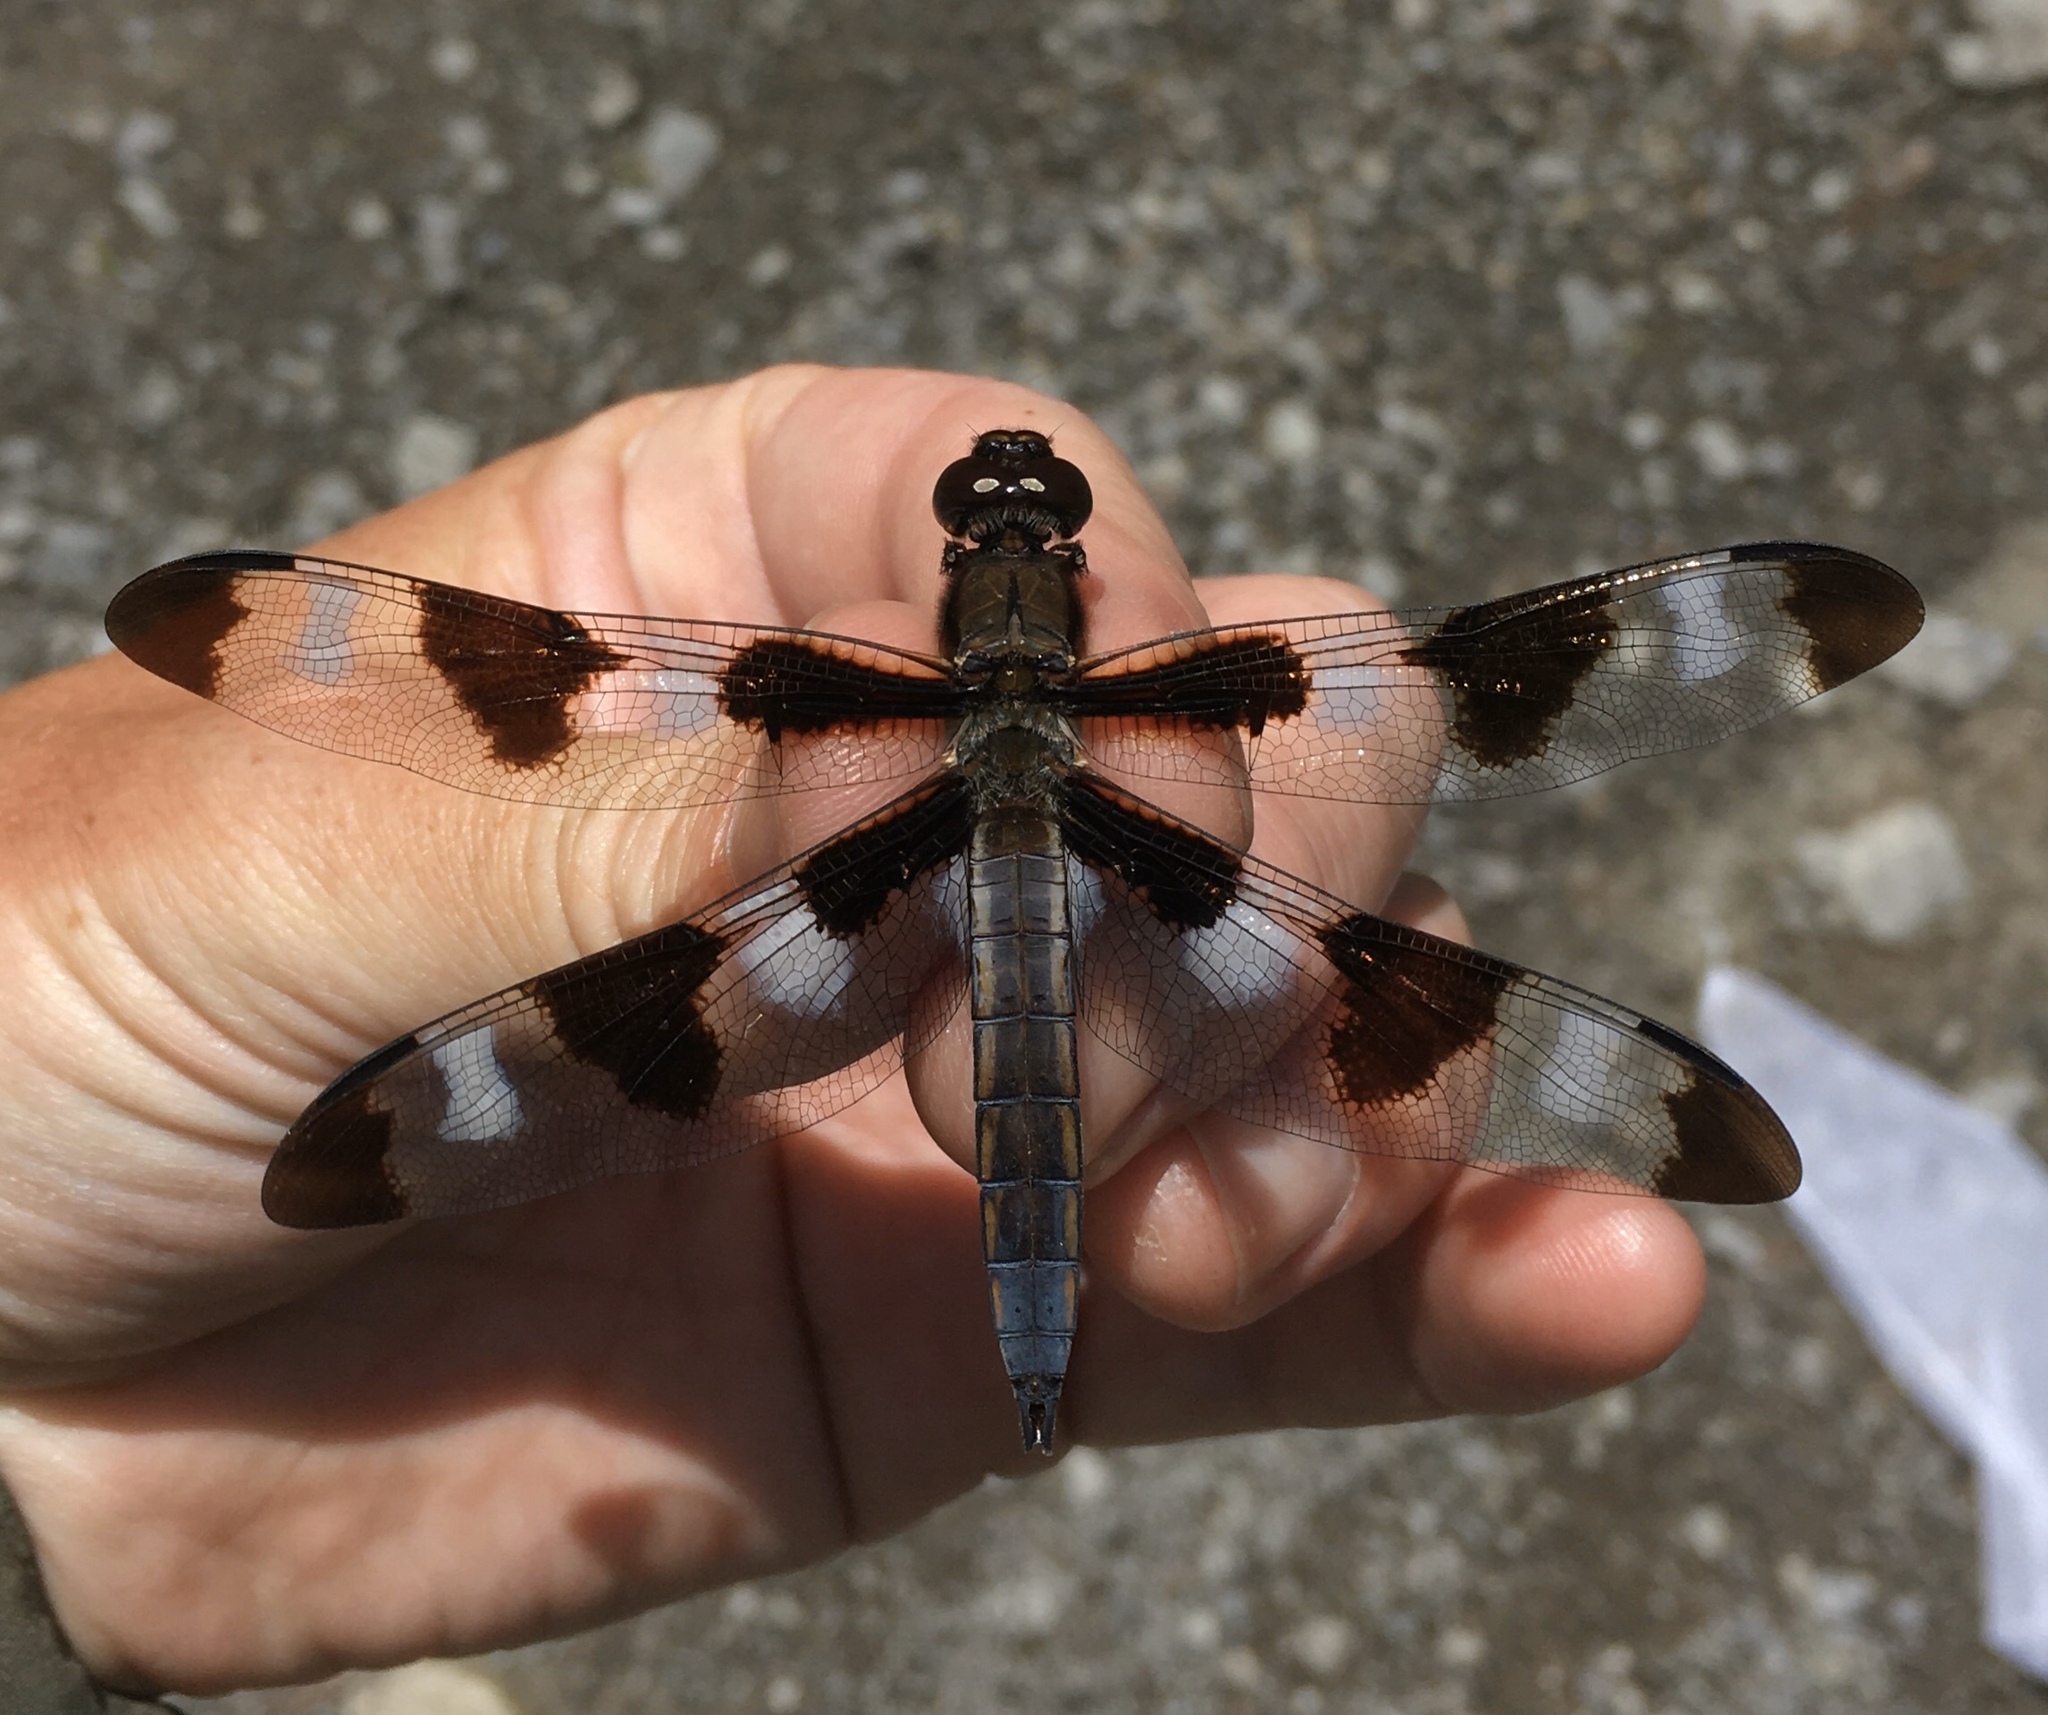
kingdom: Animalia
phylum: Arthropoda
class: Insecta
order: Odonata
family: Libellulidae
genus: Libellula
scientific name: Libellula pulchella
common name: Twelve-spotted skimmer
